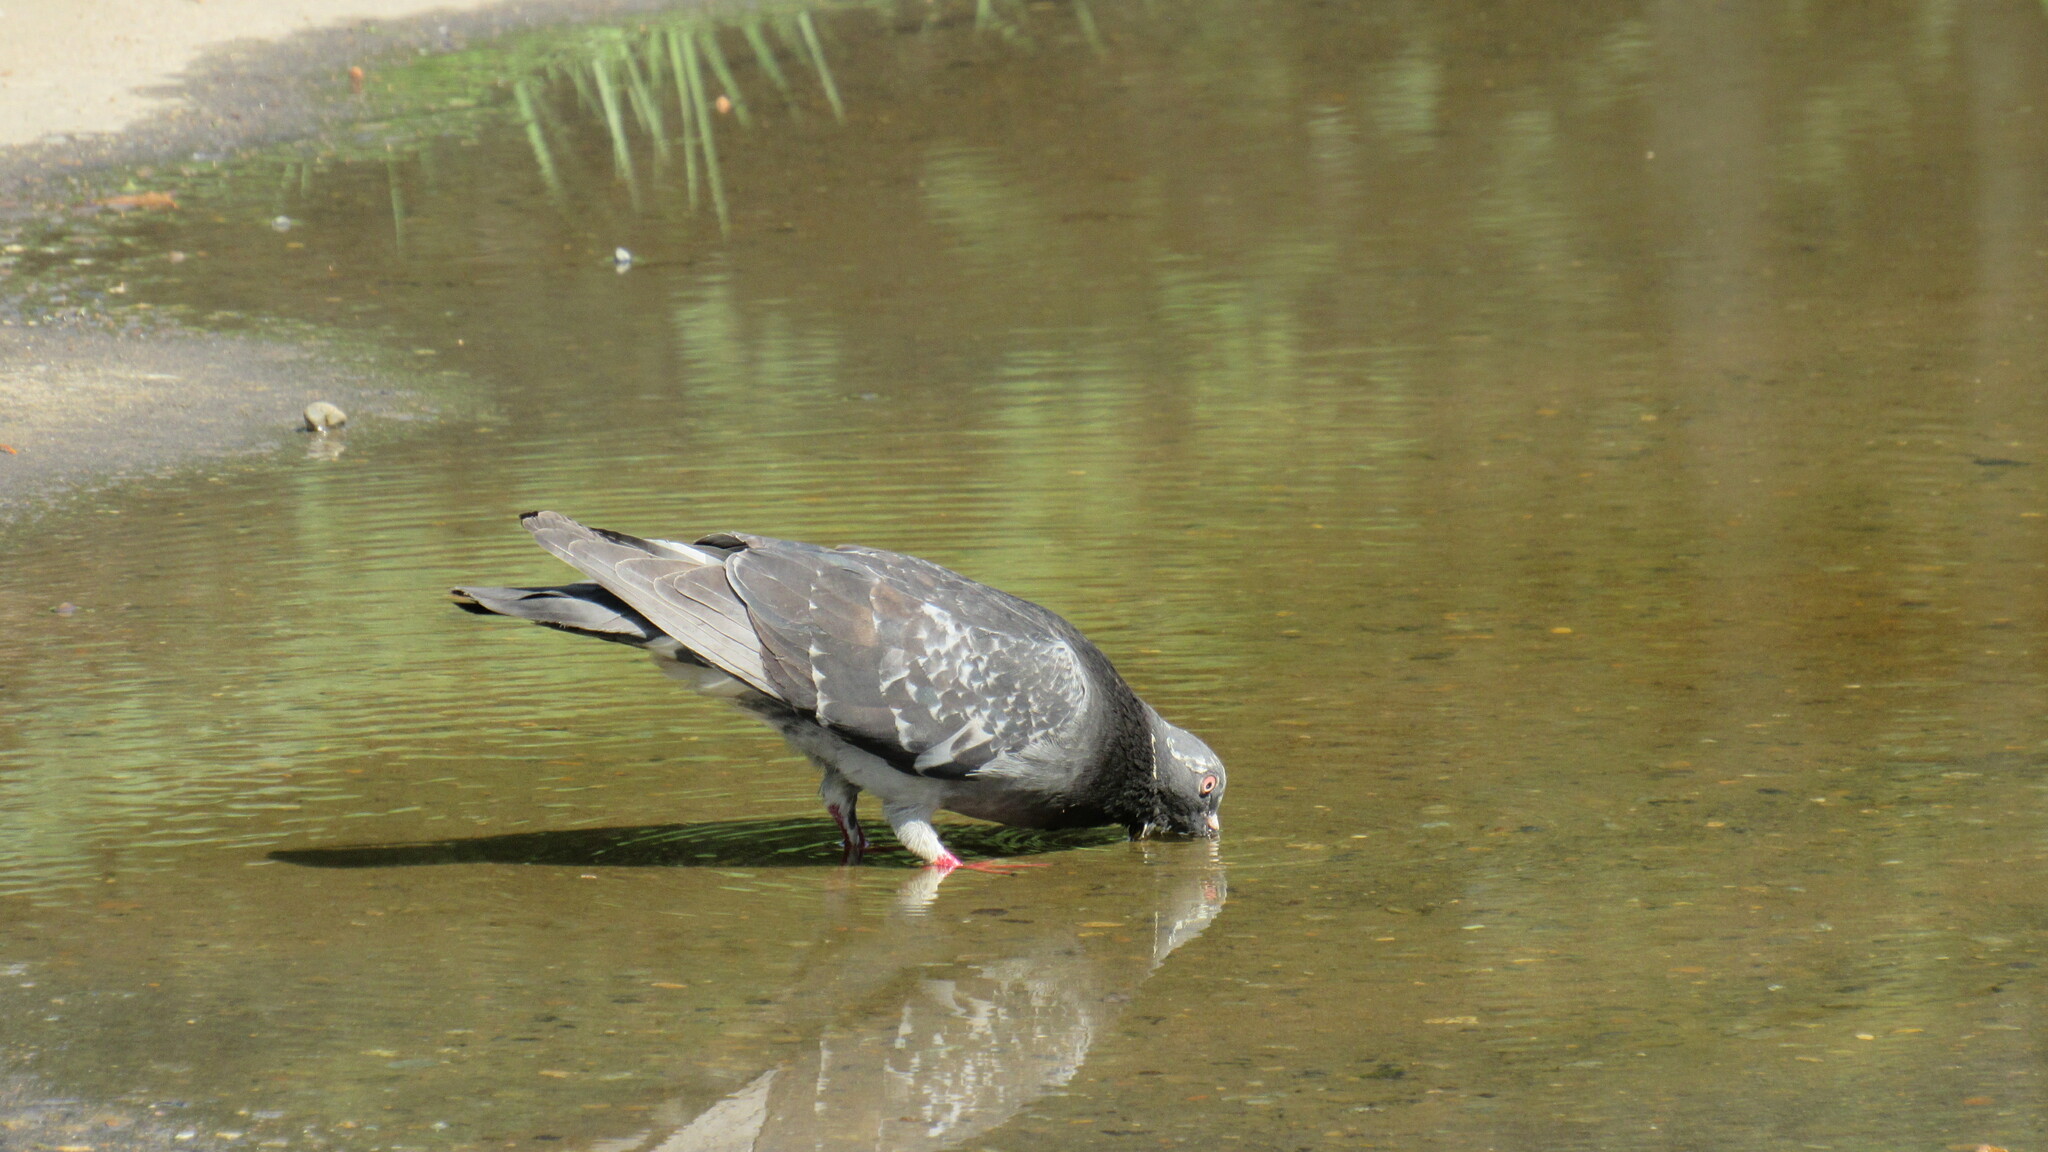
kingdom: Animalia
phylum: Chordata
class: Aves
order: Columbiformes
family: Columbidae
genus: Columba
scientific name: Columba livia
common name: Rock pigeon
